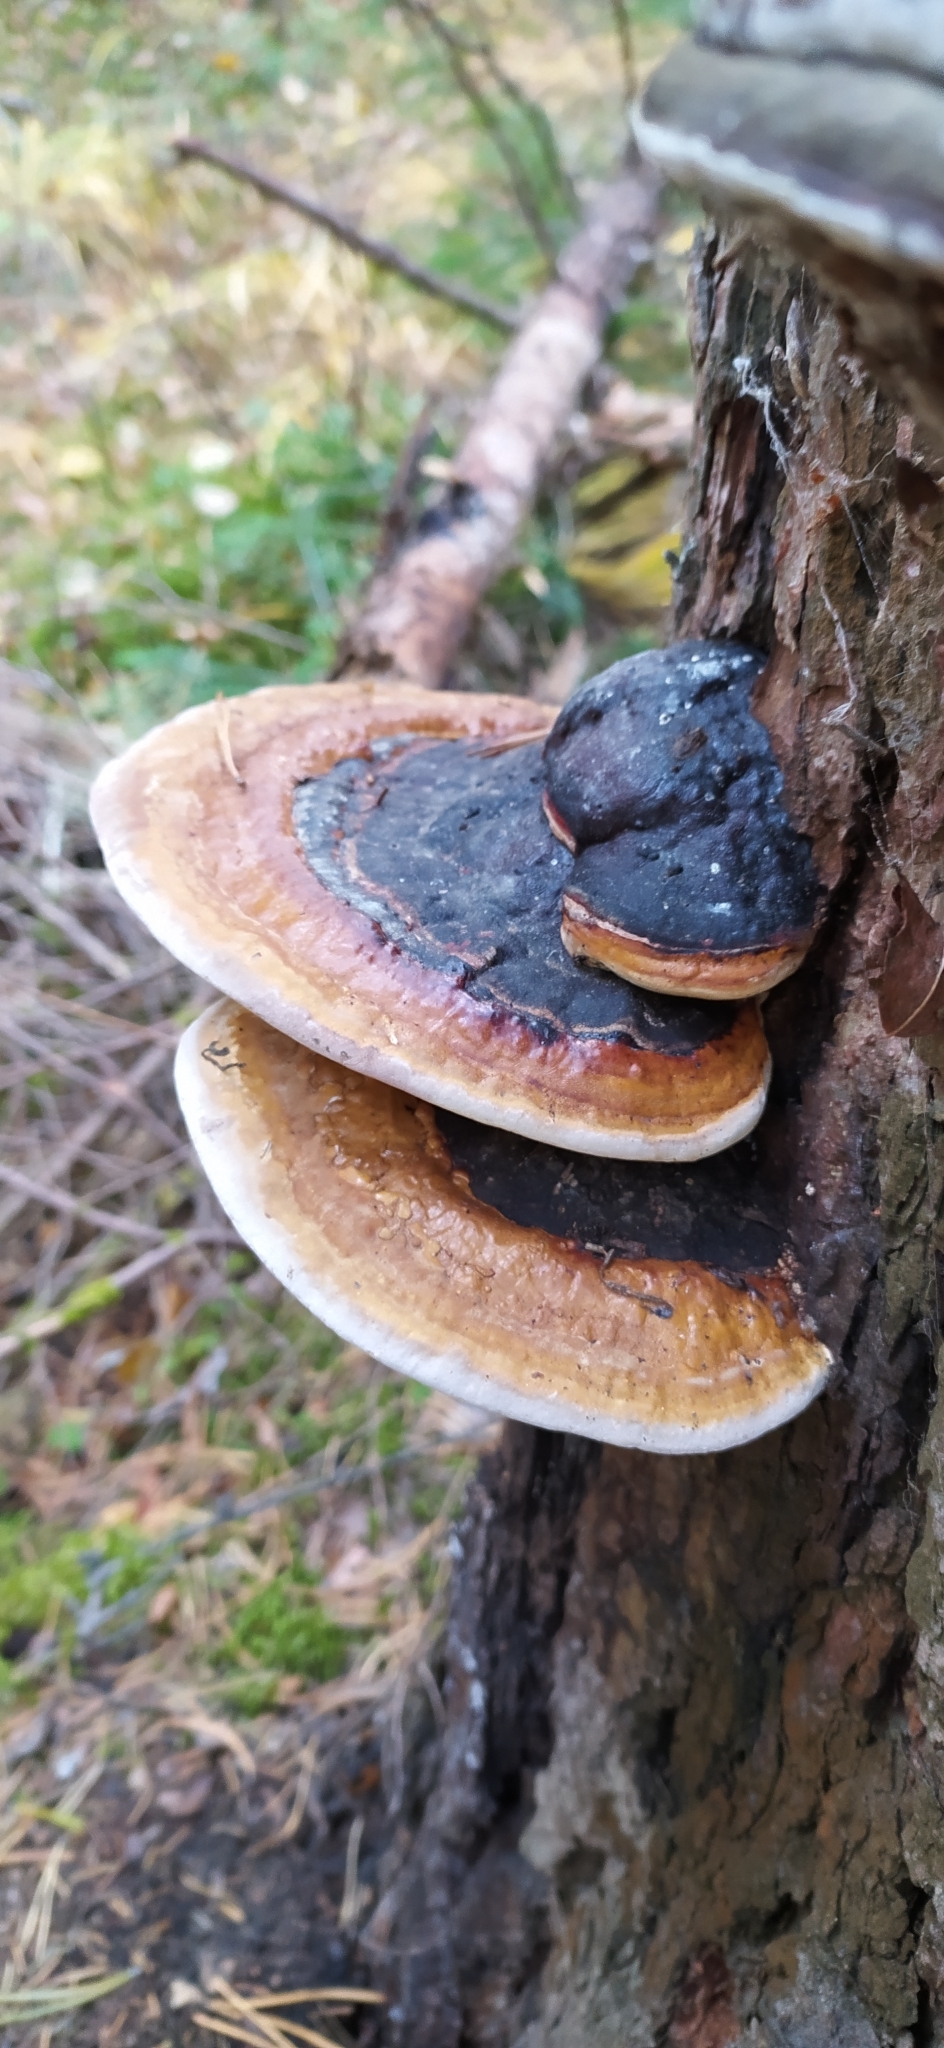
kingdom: Fungi
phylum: Basidiomycota
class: Agaricomycetes
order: Polyporales
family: Fomitopsidaceae
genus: Fomitopsis
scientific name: Fomitopsis pinicola
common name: Red-belted bracket
